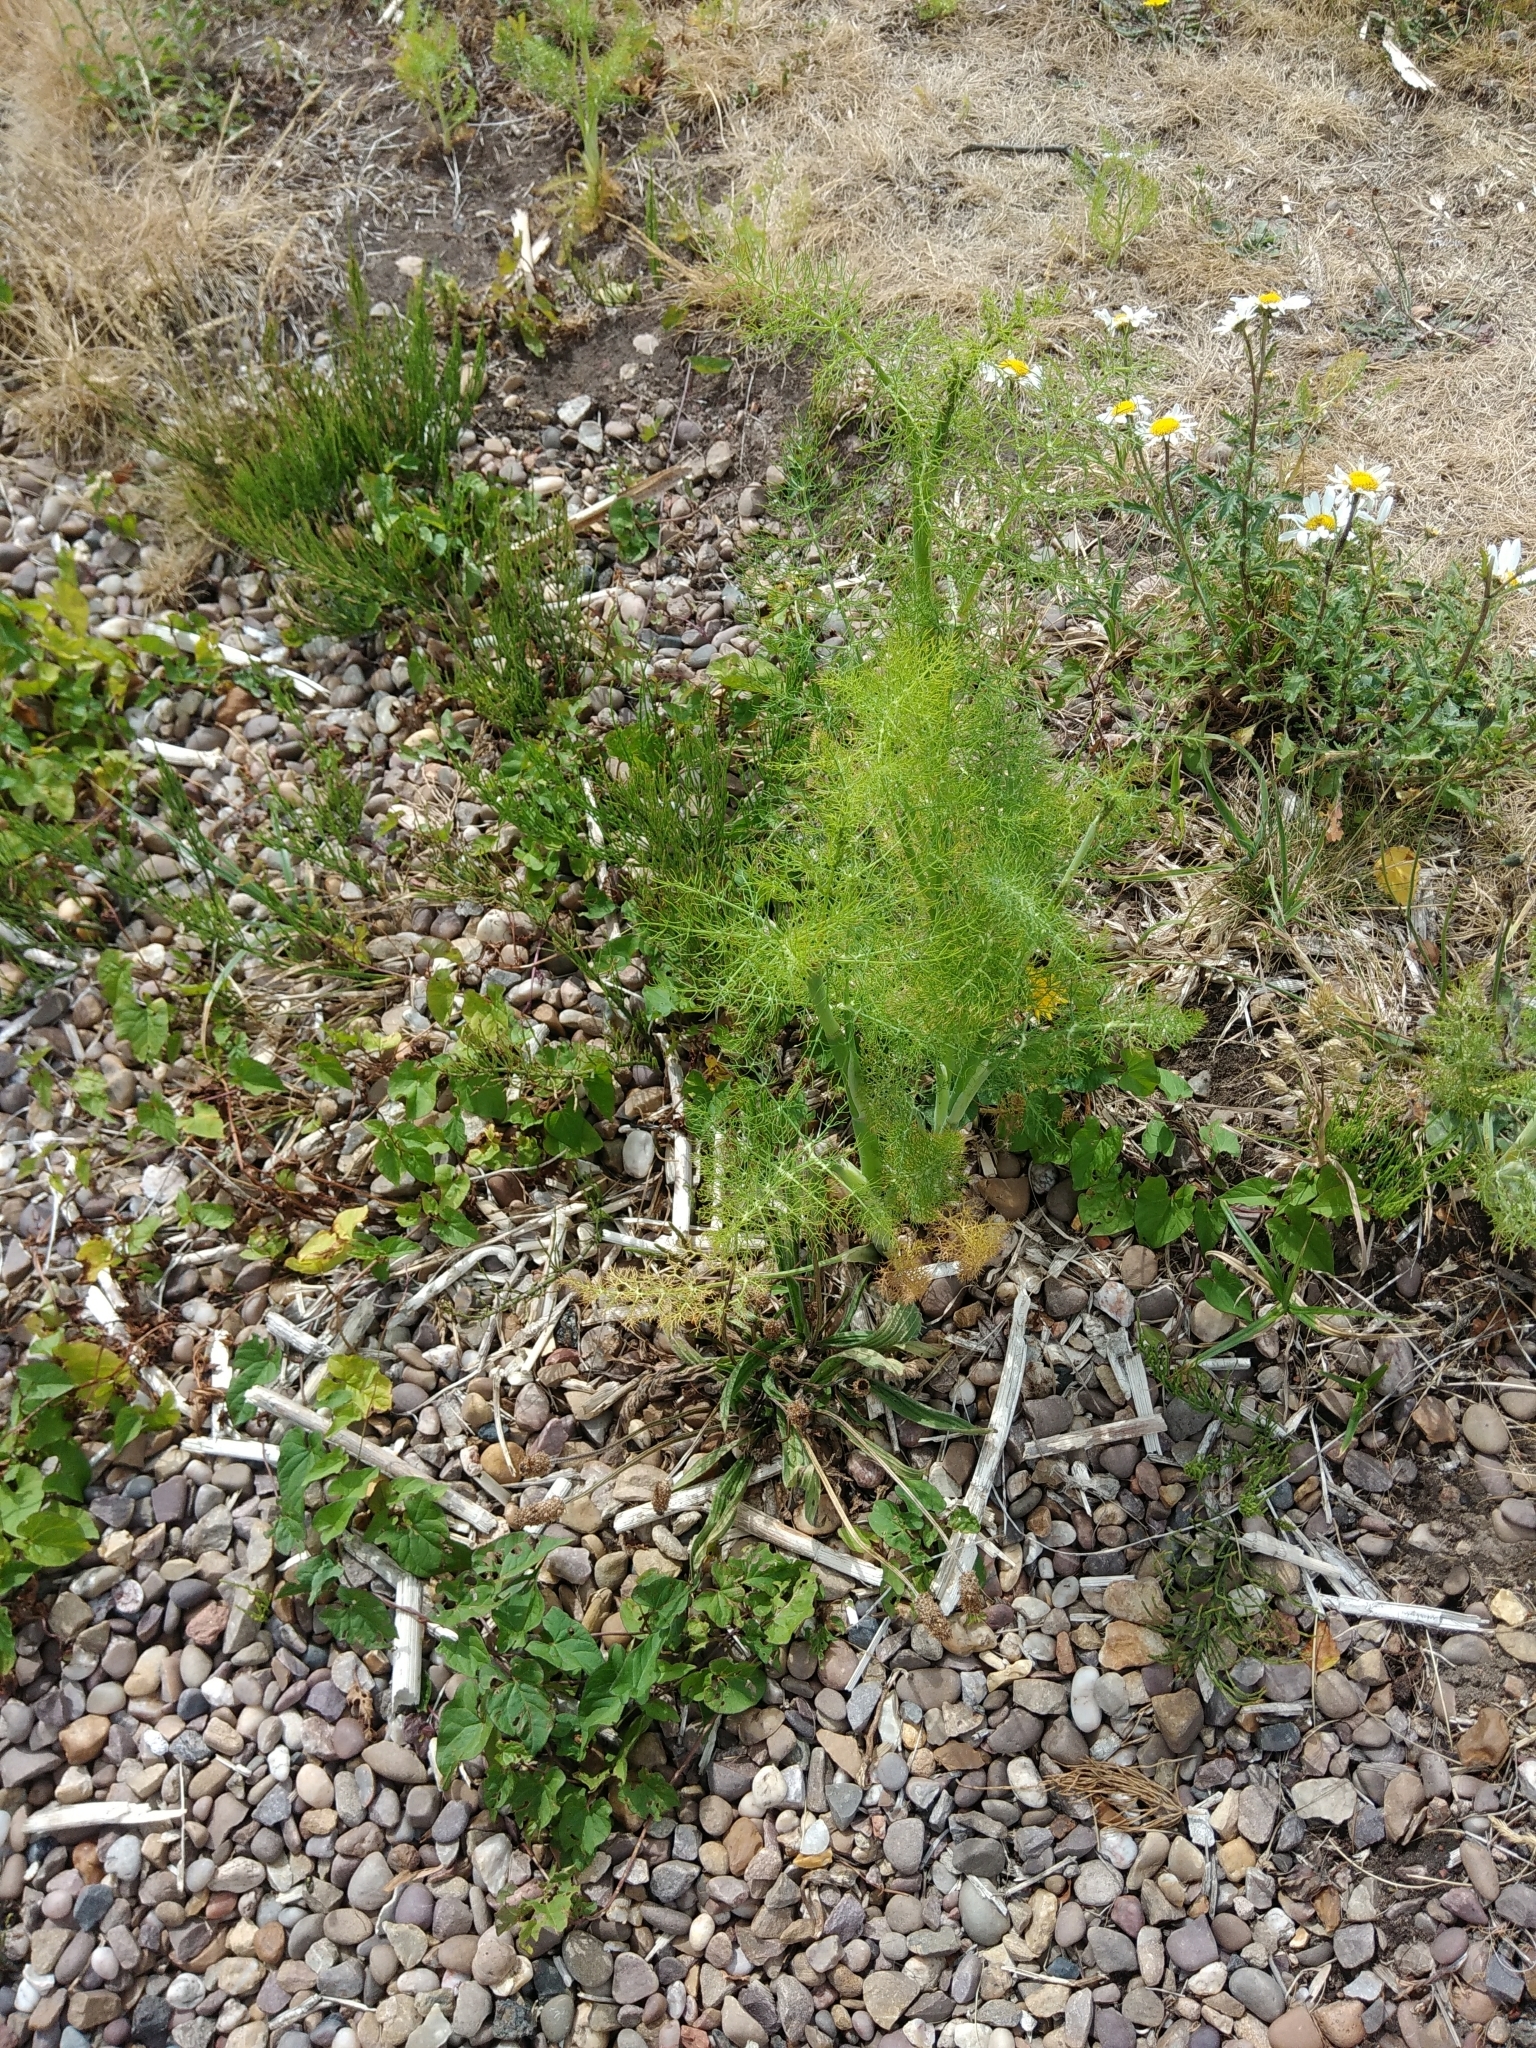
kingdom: Plantae
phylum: Tracheophyta
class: Magnoliopsida
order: Apiales
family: Apiaceae
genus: Foeniculum
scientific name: Foeniculum vulgare
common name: Fennel
